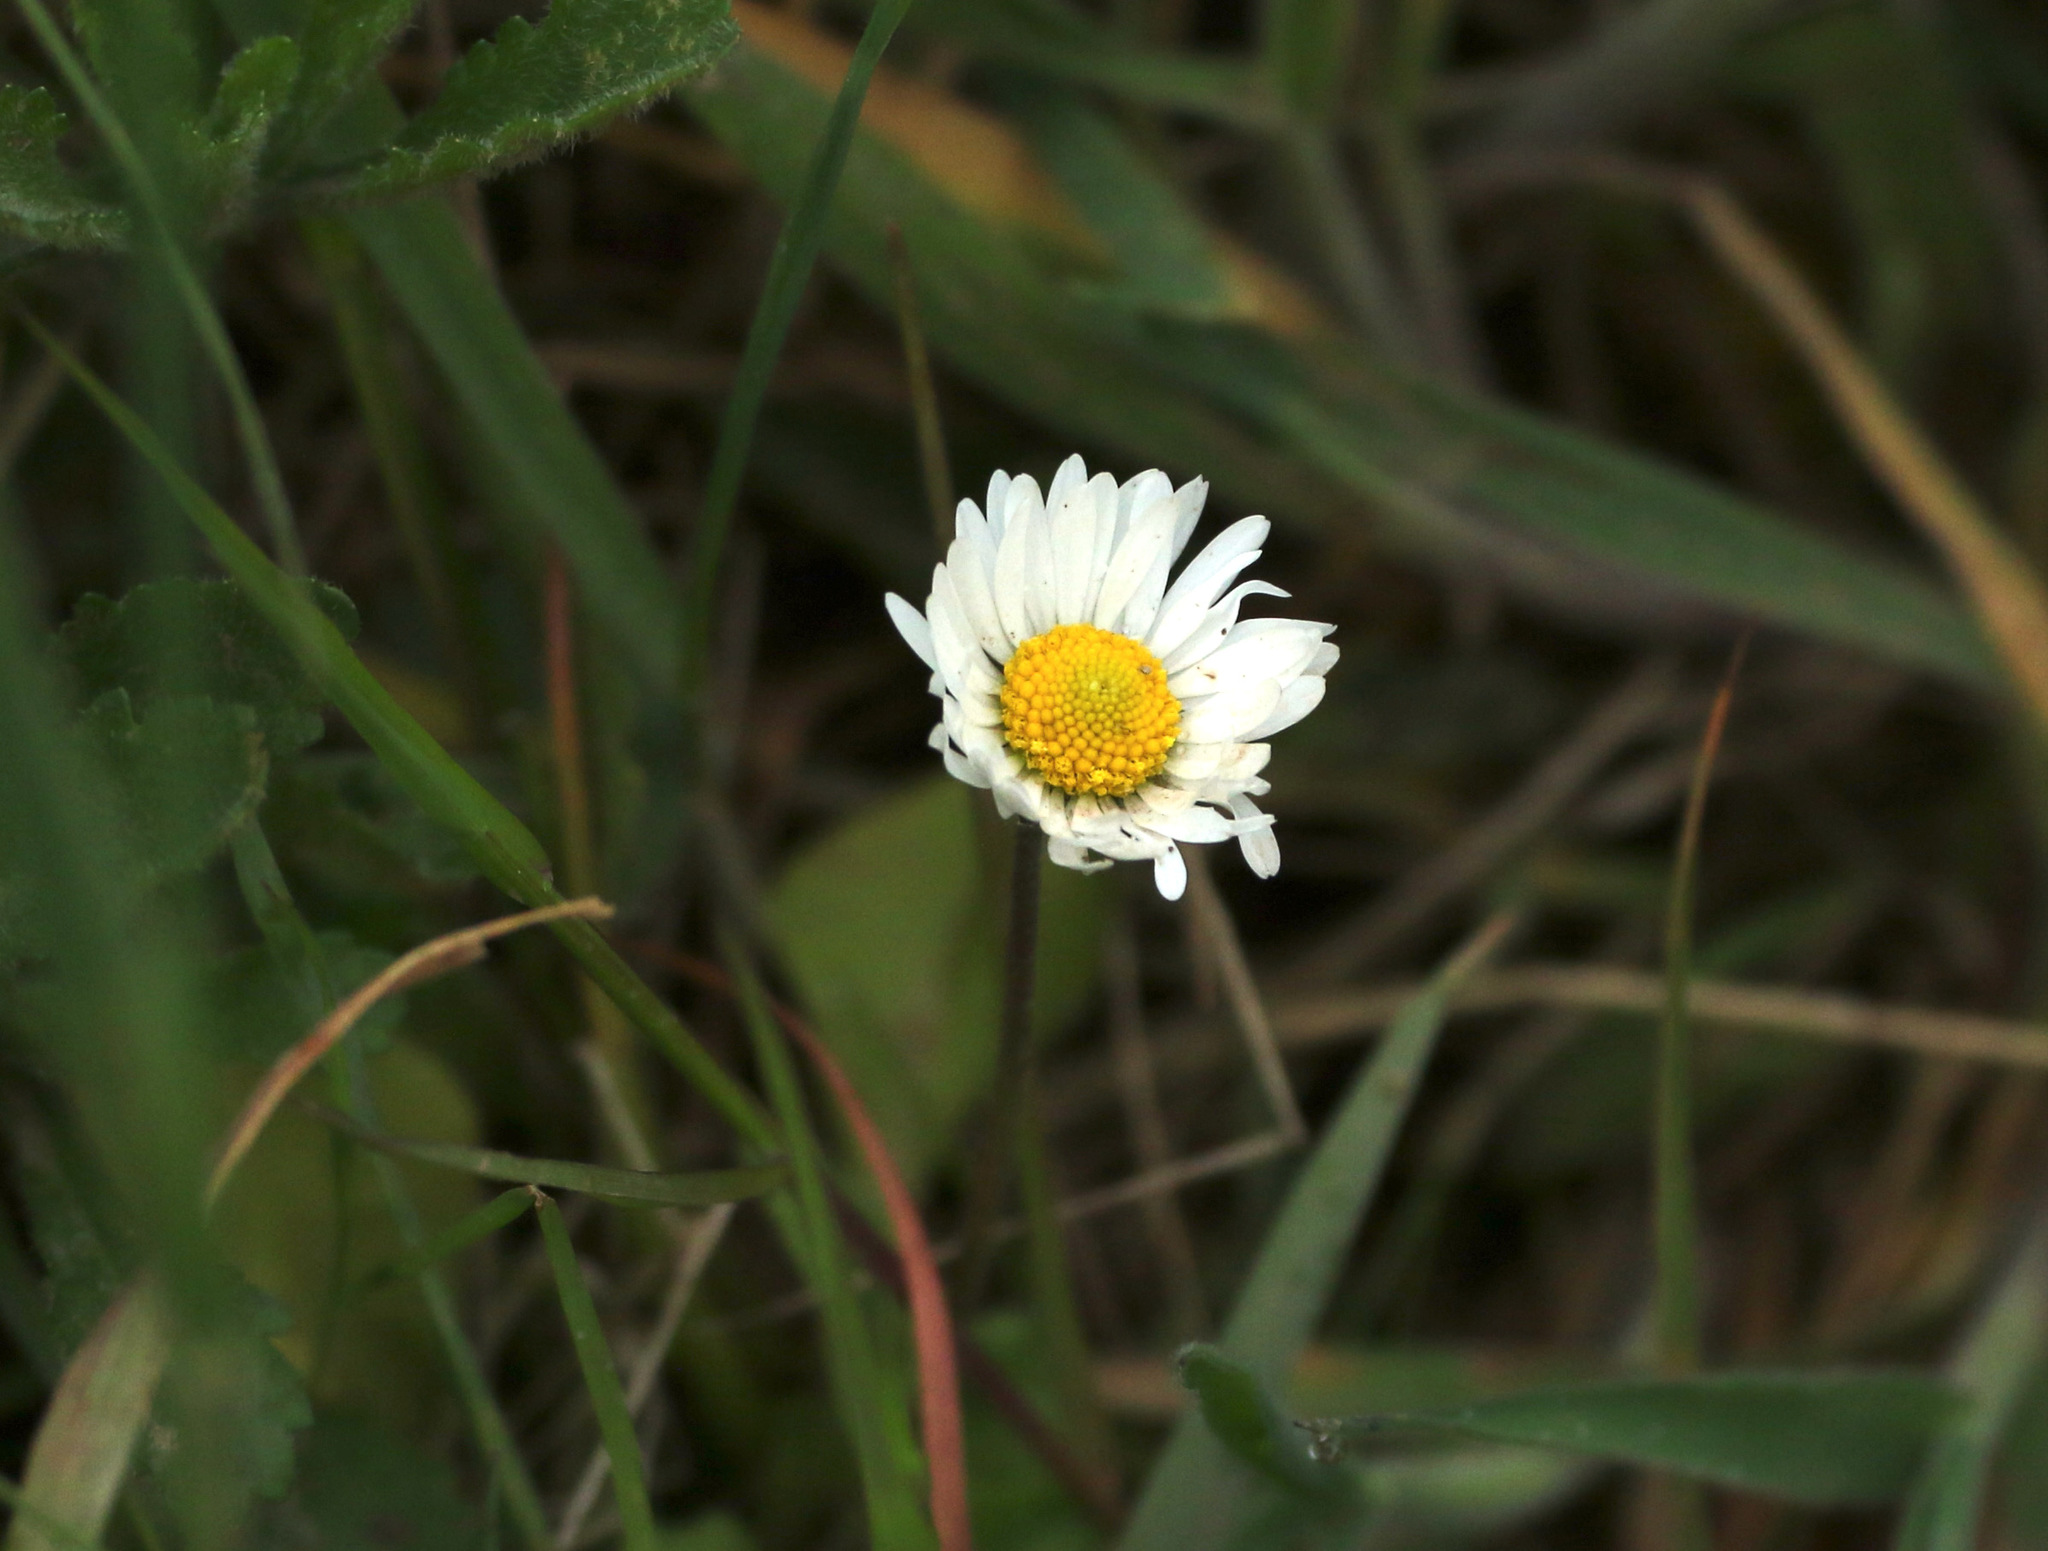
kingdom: Plantae
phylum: Tracheophyta
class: Magnoliopsida
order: Asterales
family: Asteraceae
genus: Bellis
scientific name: Bellis perennis
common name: Lawndaisy
